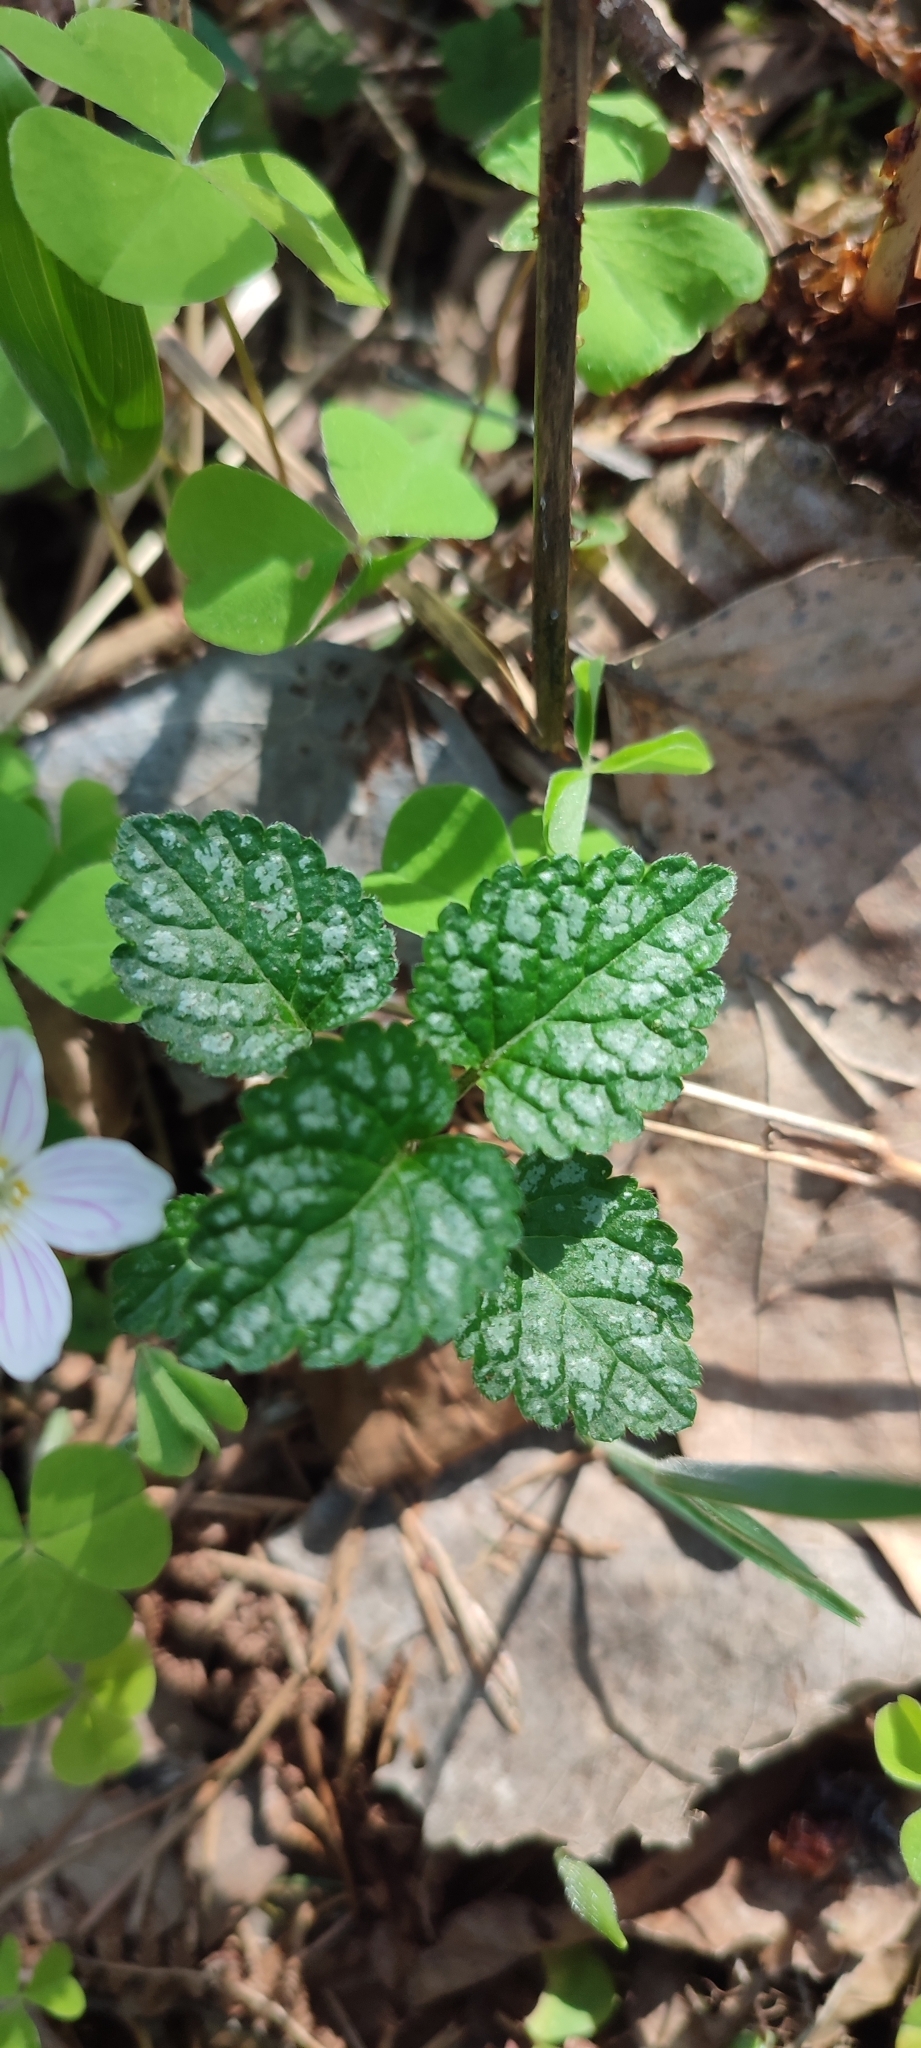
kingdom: Plantae
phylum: Tracheophyta
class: Magnoliopsida
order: Lamiales
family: Lamiaceae
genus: Lamium
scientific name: Lamium galeobdolon
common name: Yellow archangel
